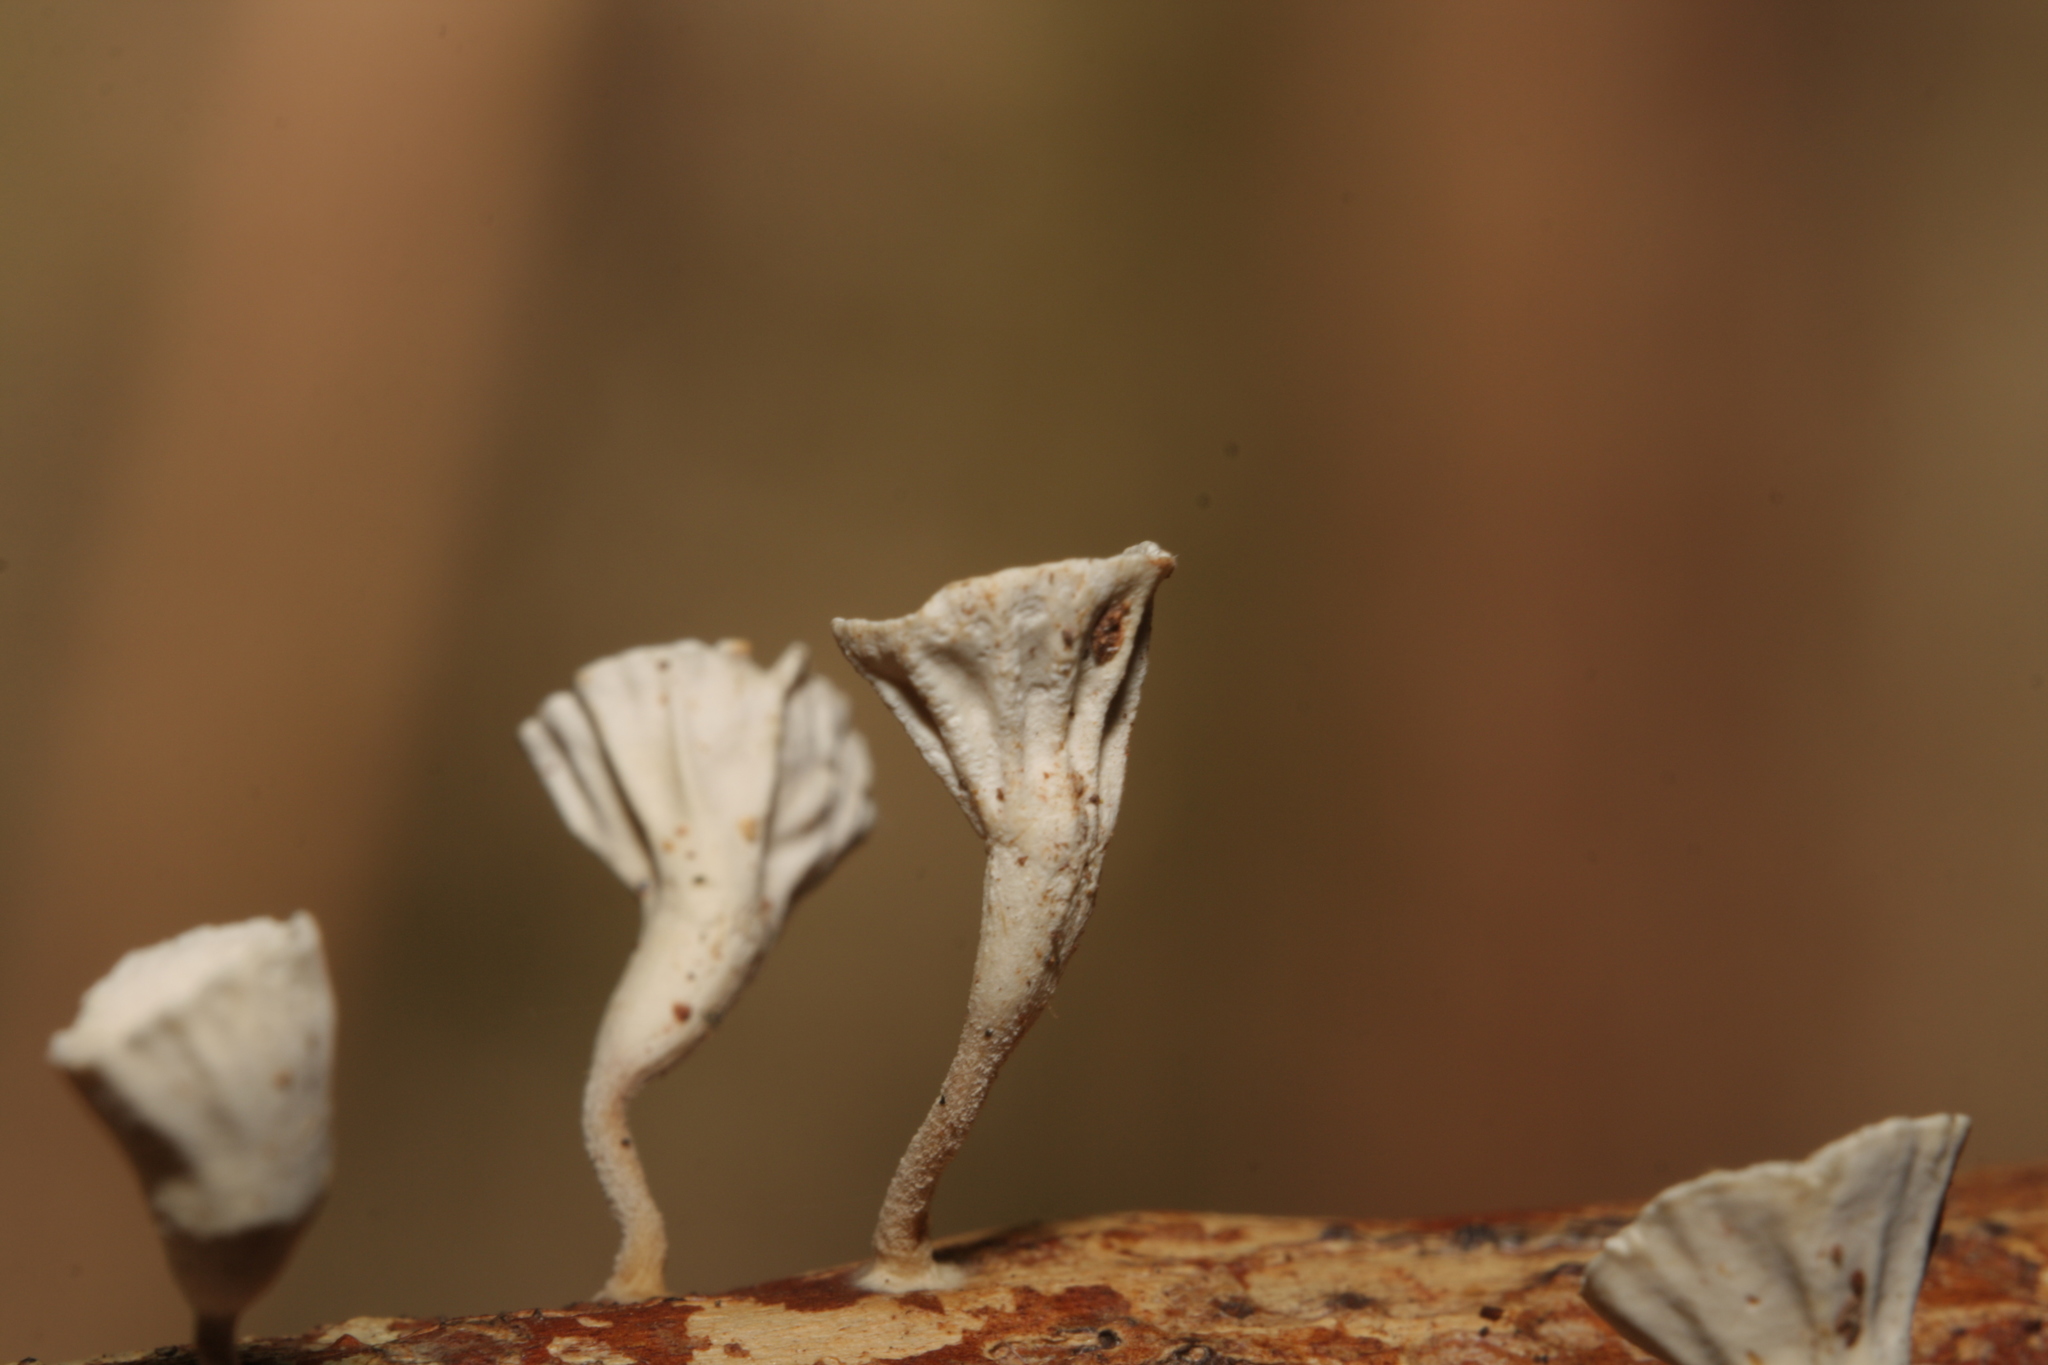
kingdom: Fungi
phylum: Basidiomycota
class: Agaricomycetes
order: Agaricales
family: Omphalotaceae
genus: Gymnopus
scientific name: Gymnopus montagnei
